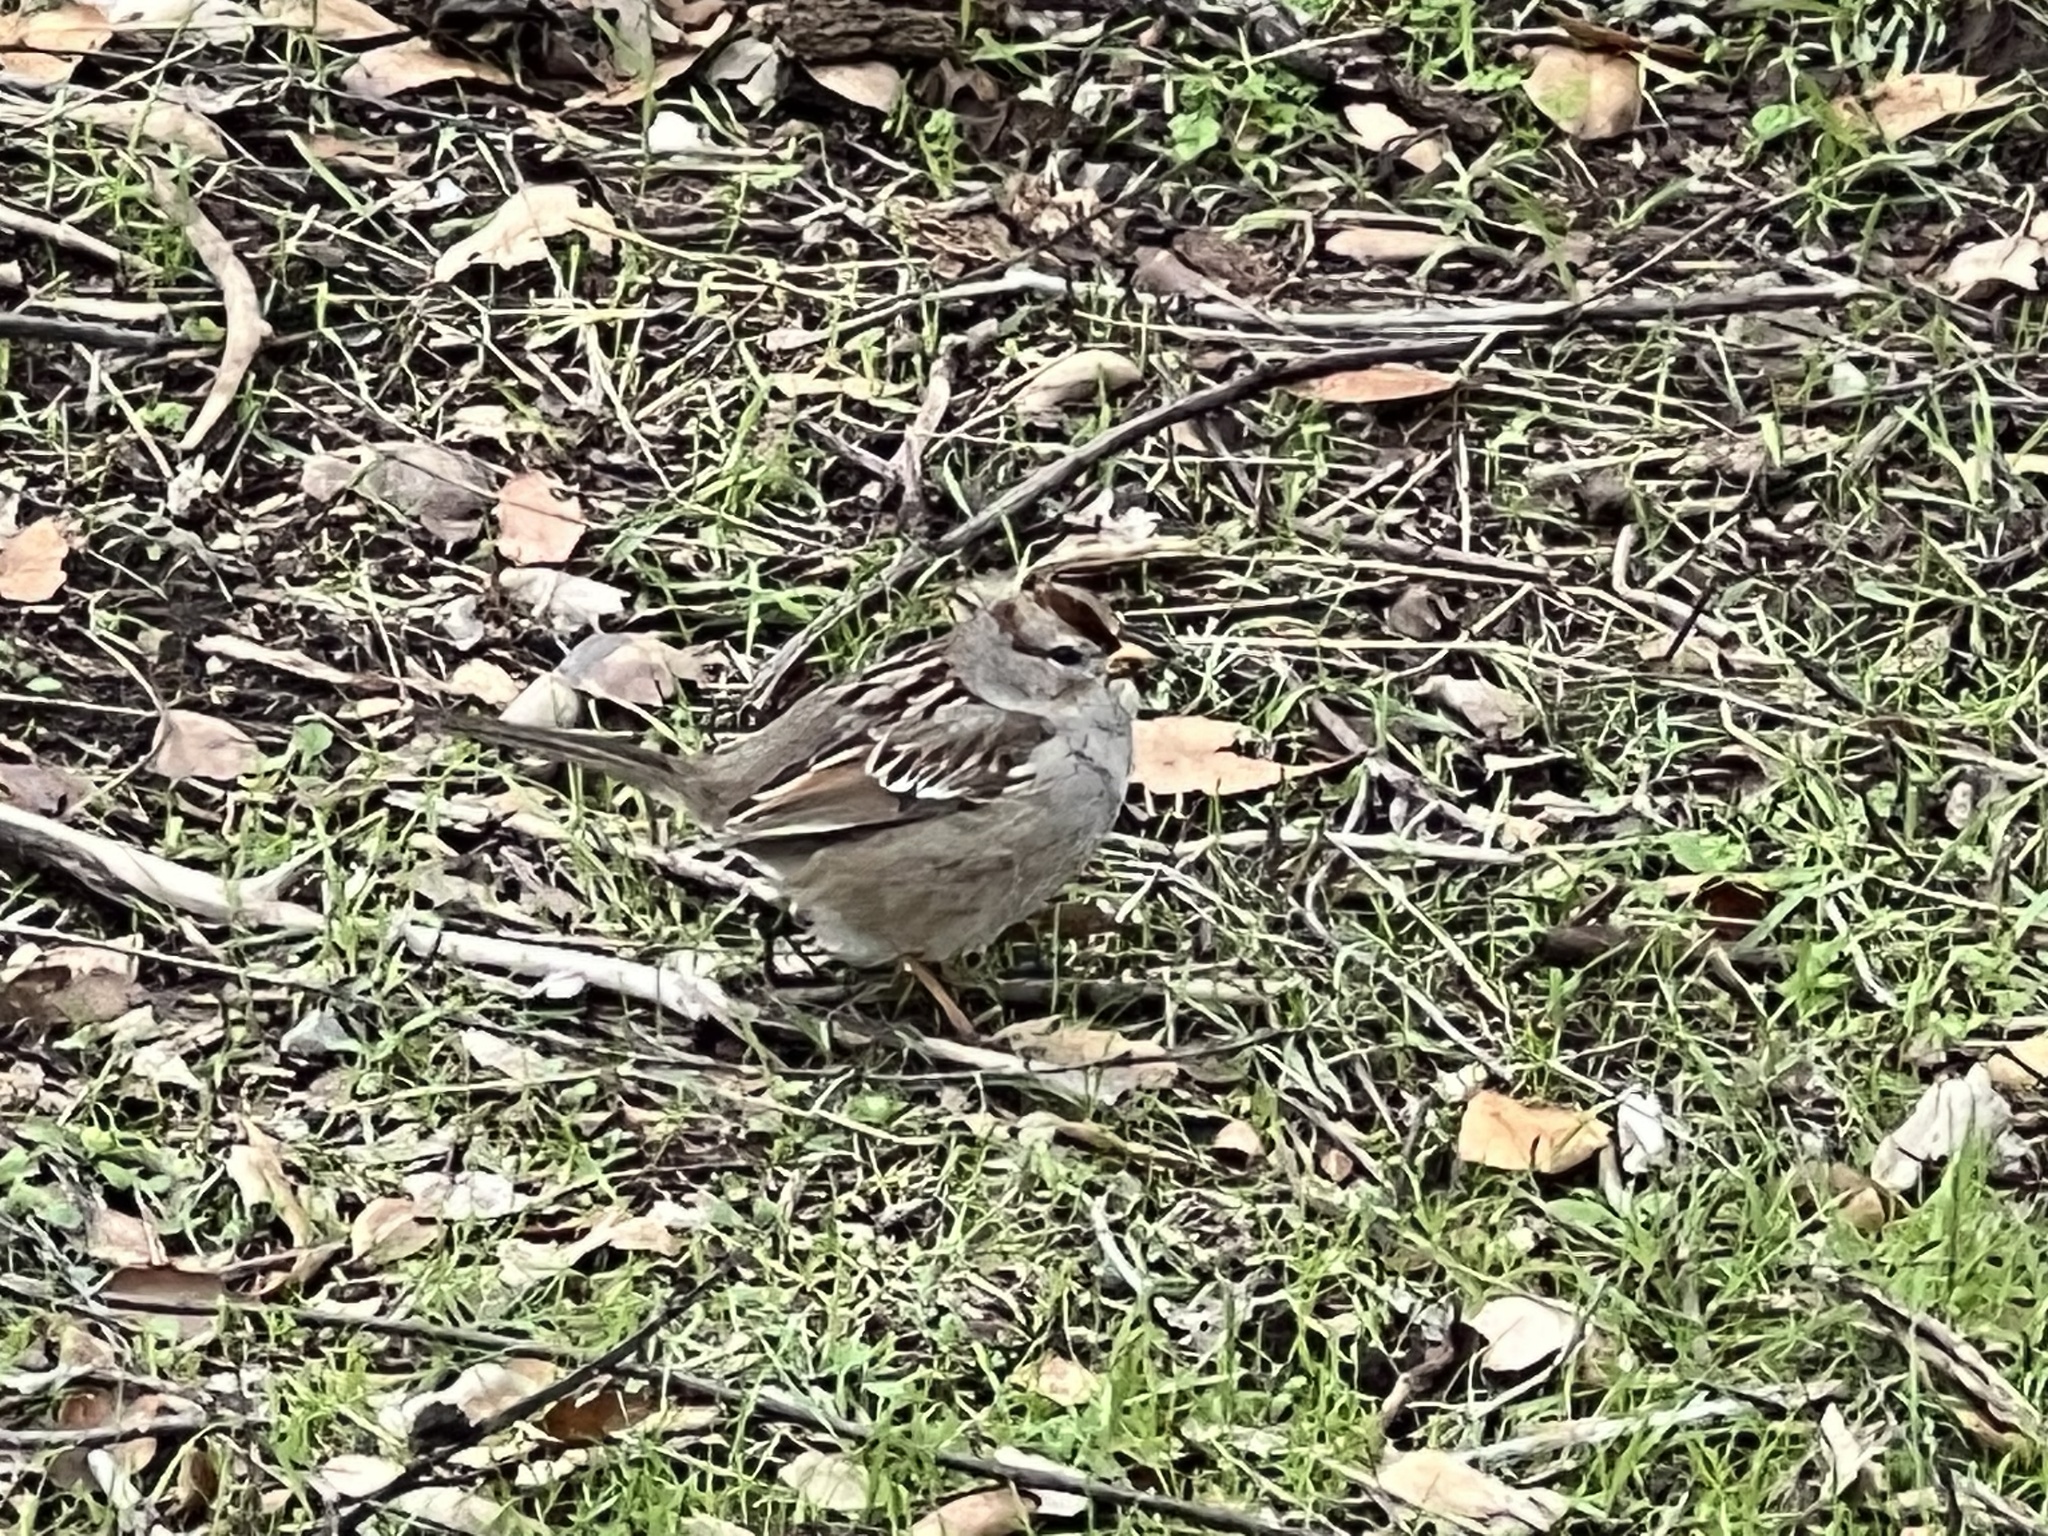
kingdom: Animalia
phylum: Chordata
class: Aves
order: Passeriformes
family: Passerellidae
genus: Zonotrichia
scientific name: Zonotrichia leucophrys
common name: White-crowned sparrow
